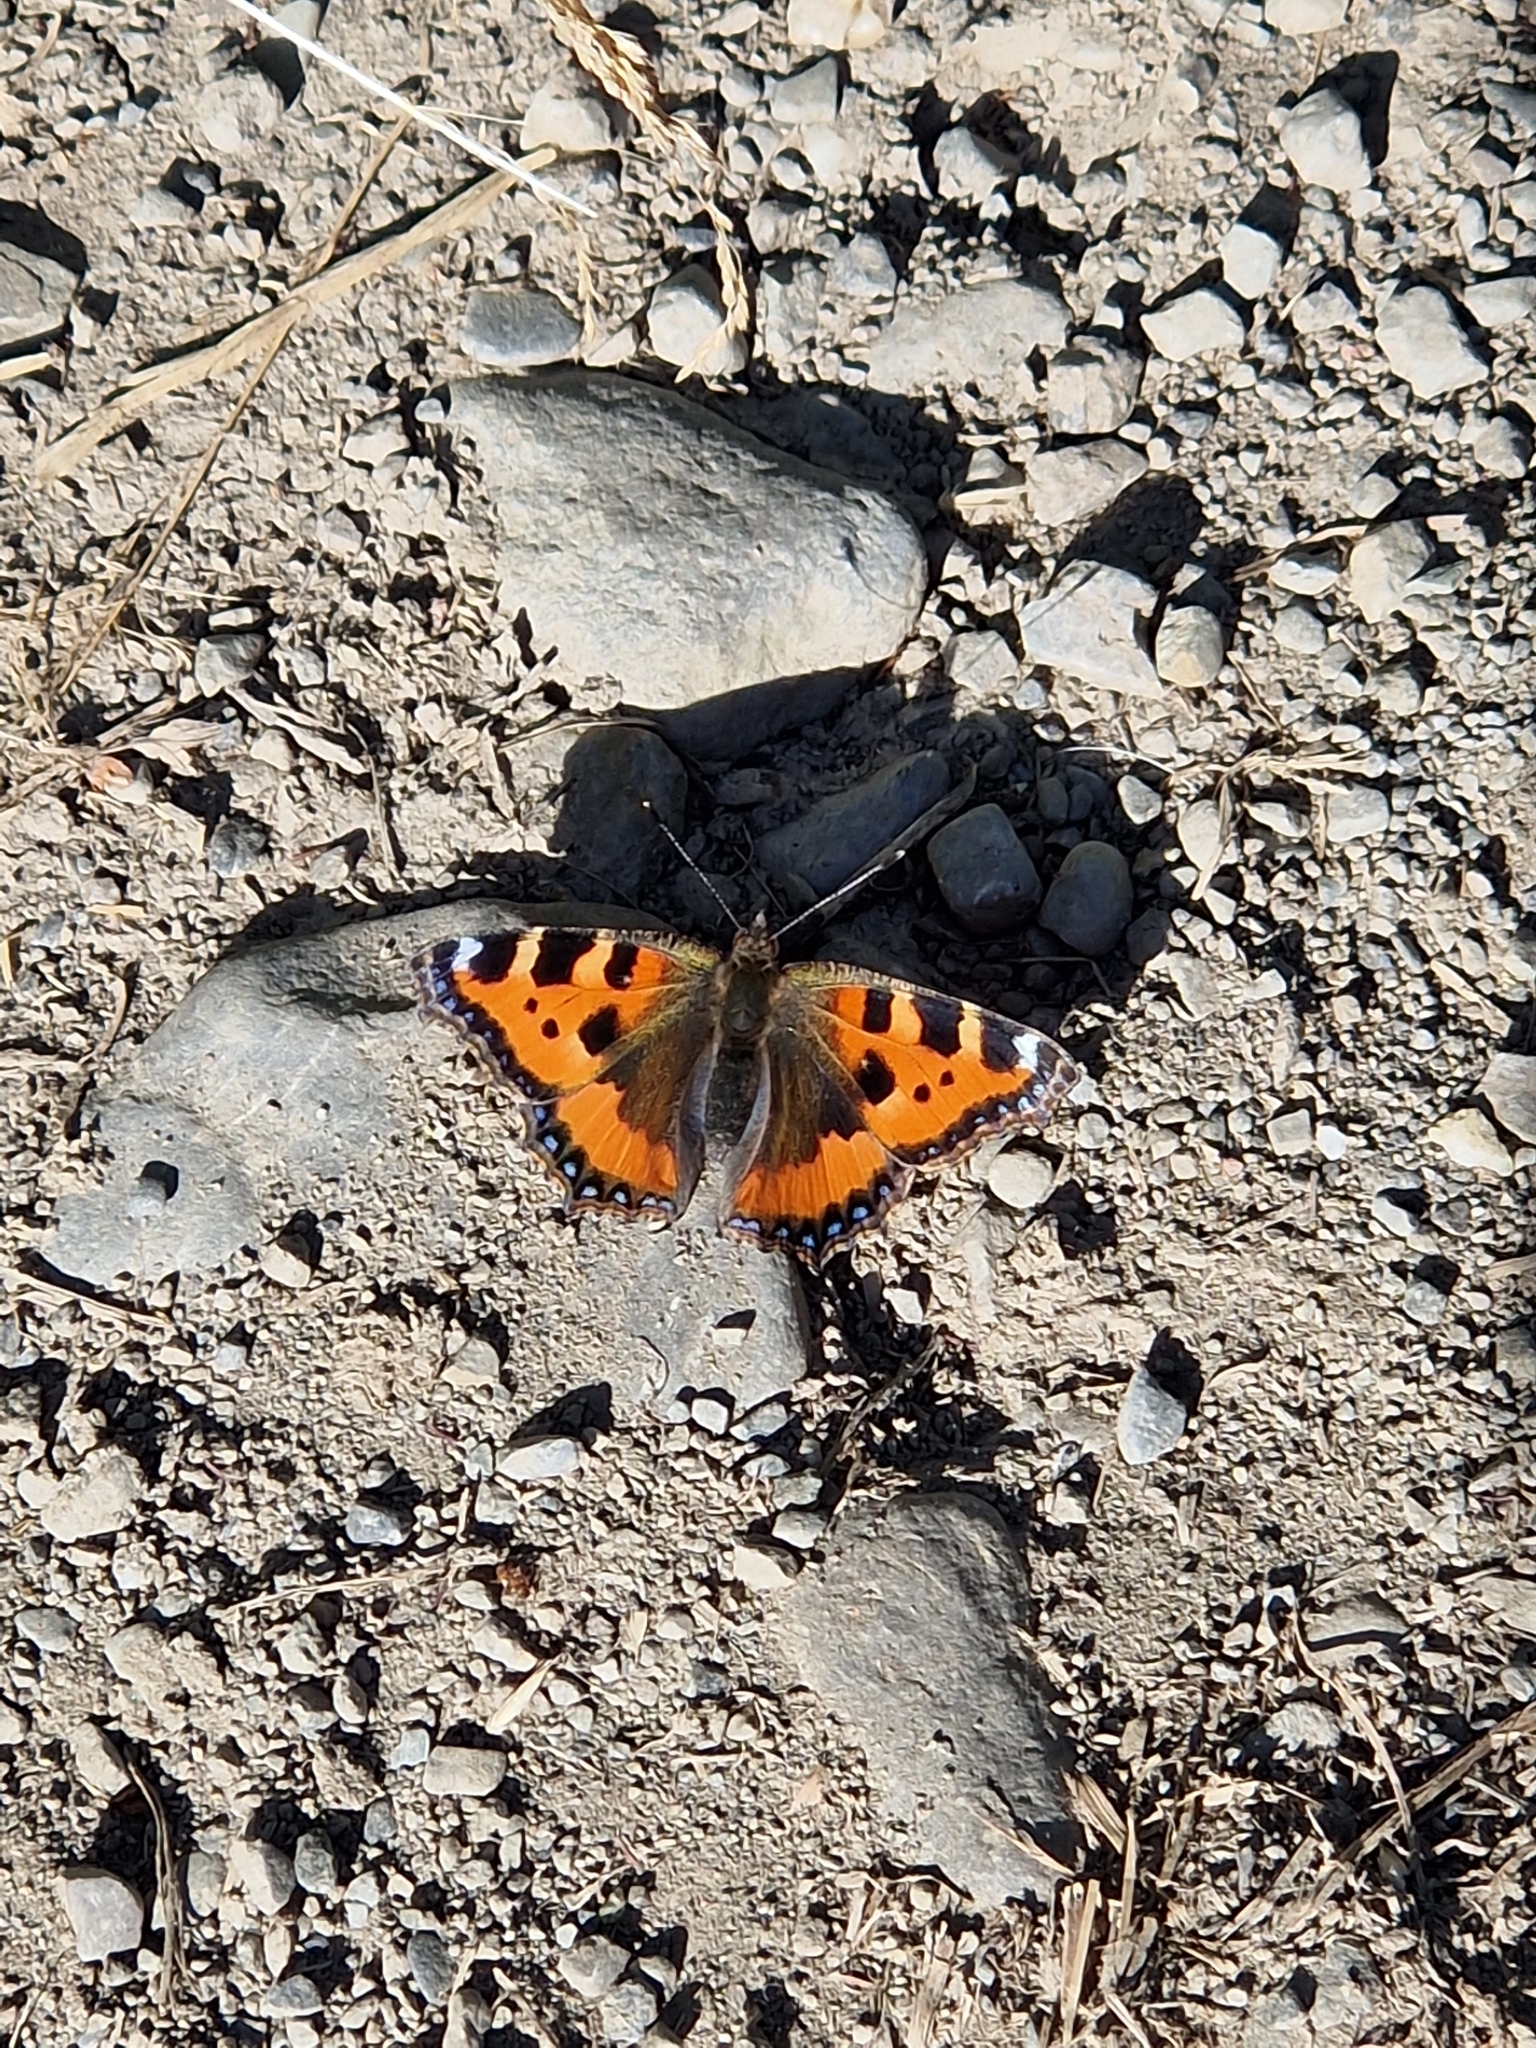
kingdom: Animalia
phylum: Arthropoda
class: Insecta
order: Lepidoptera
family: Nymphalidae
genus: Aglais
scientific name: Aglais urticae
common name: Small tortoiseshell
